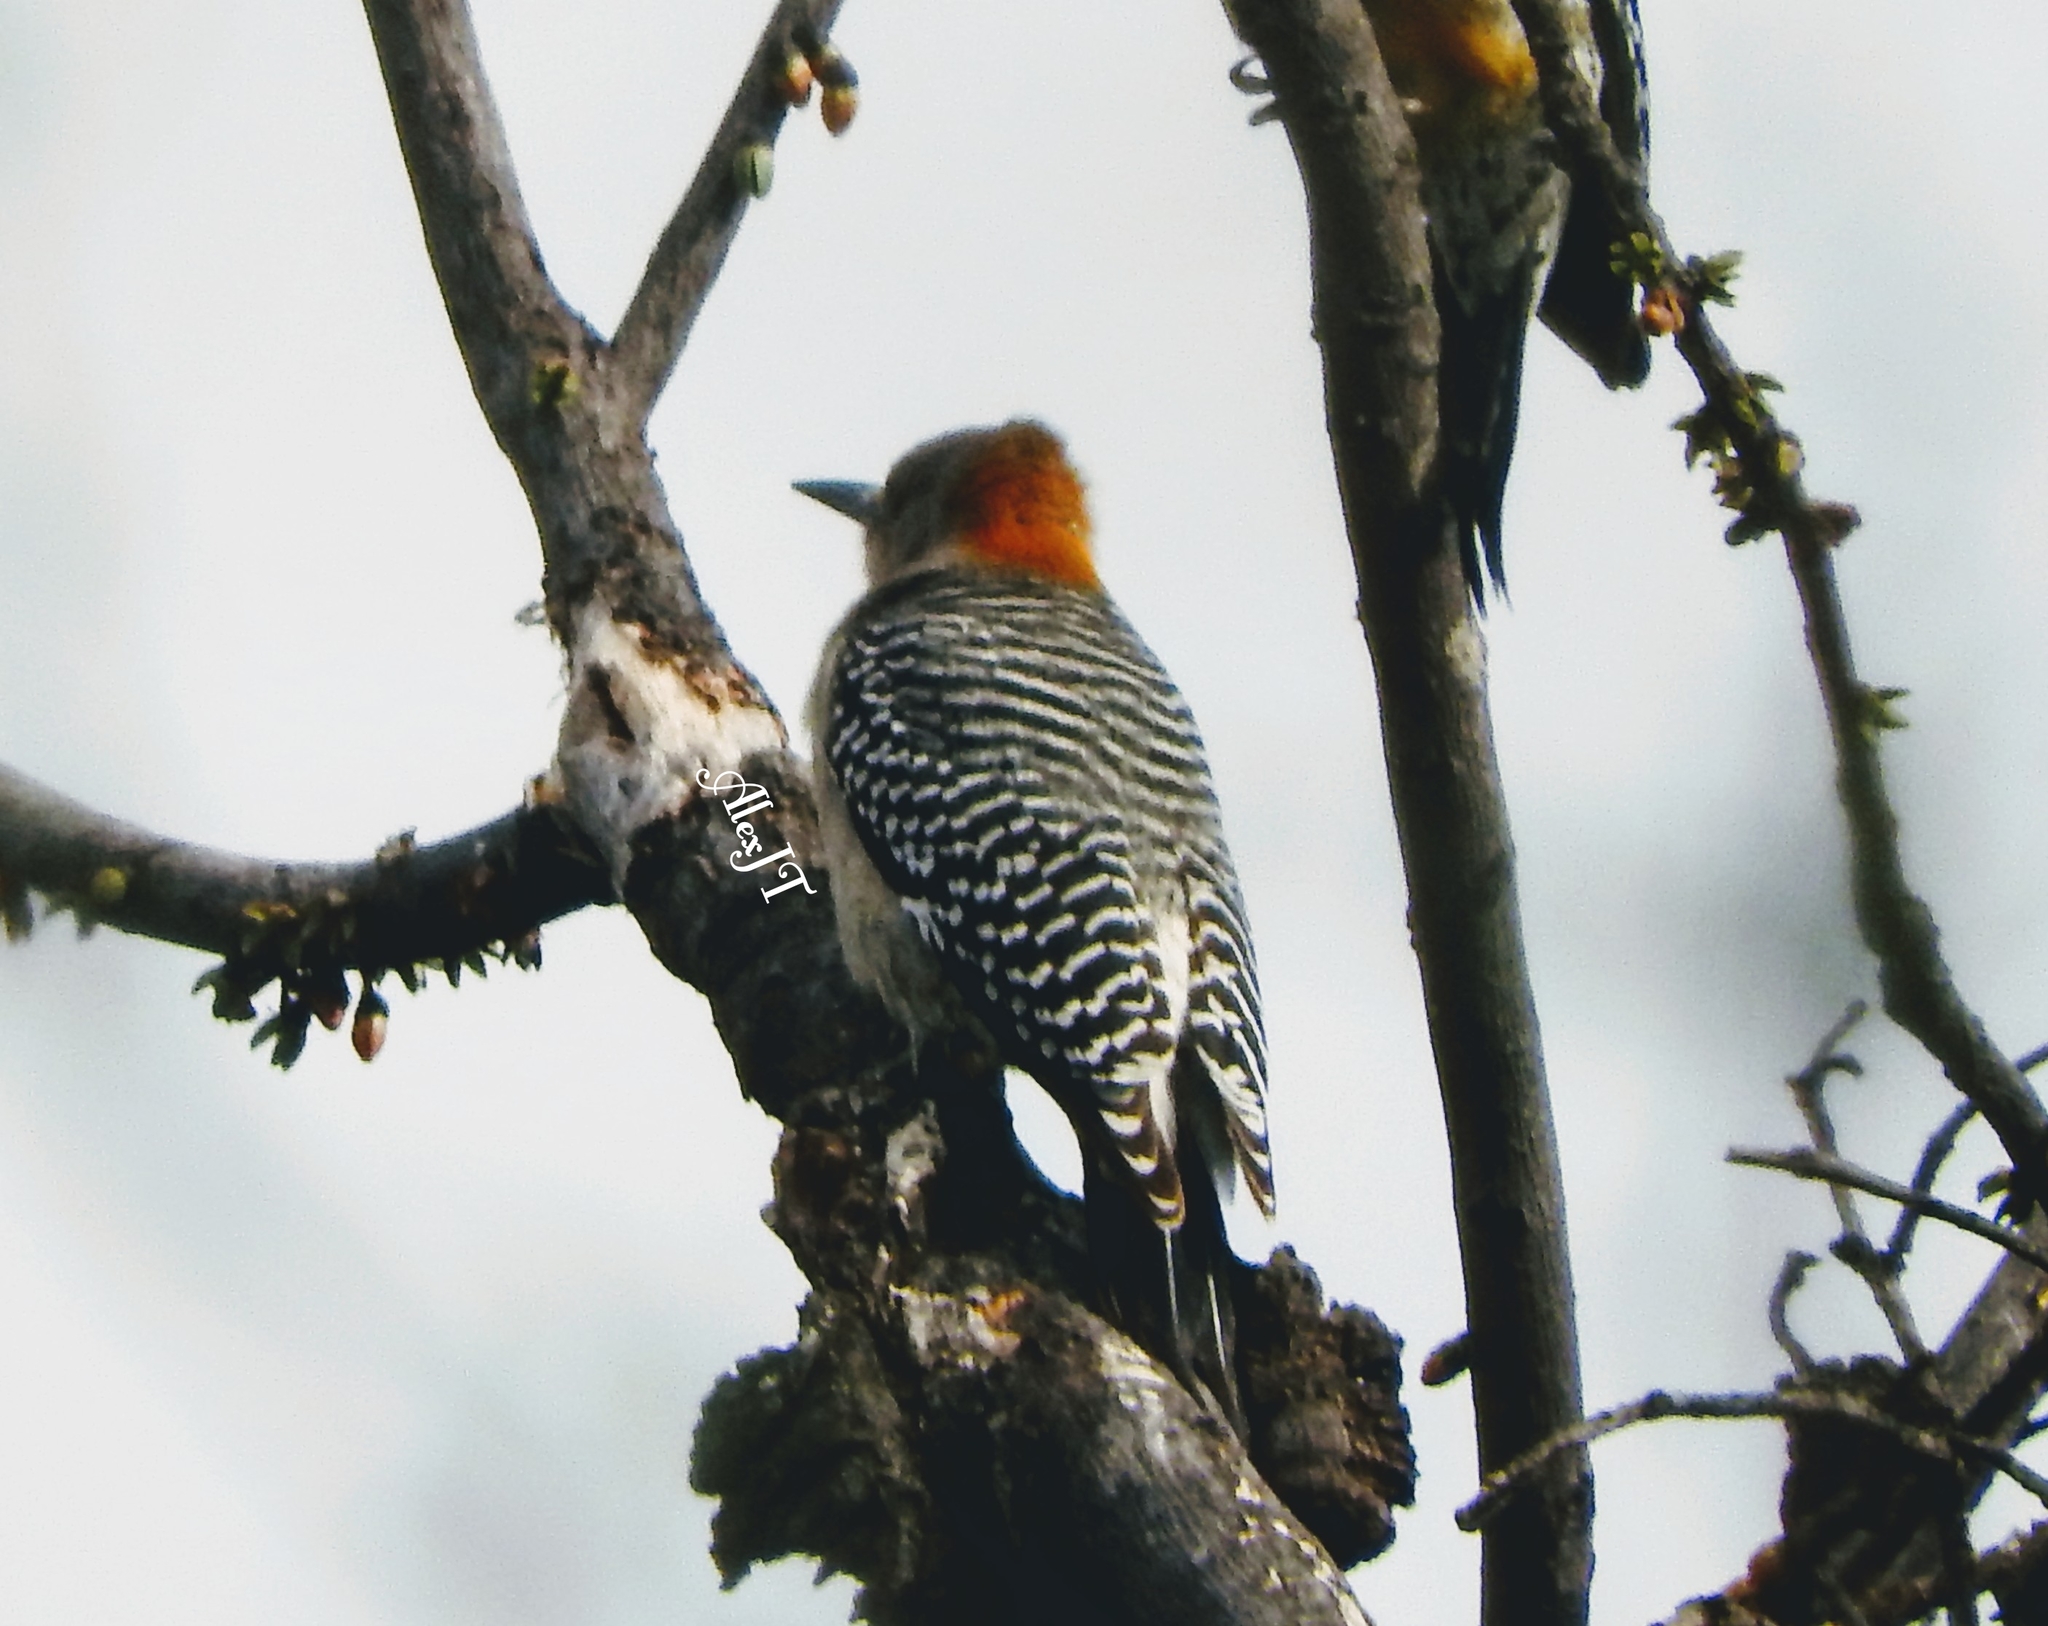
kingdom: Animalia
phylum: Chordata
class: Aves
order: Piciformes
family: Picidae
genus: Melanerpes
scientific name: Melanerpes aurifrons
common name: Golden-fronted woodpecker
